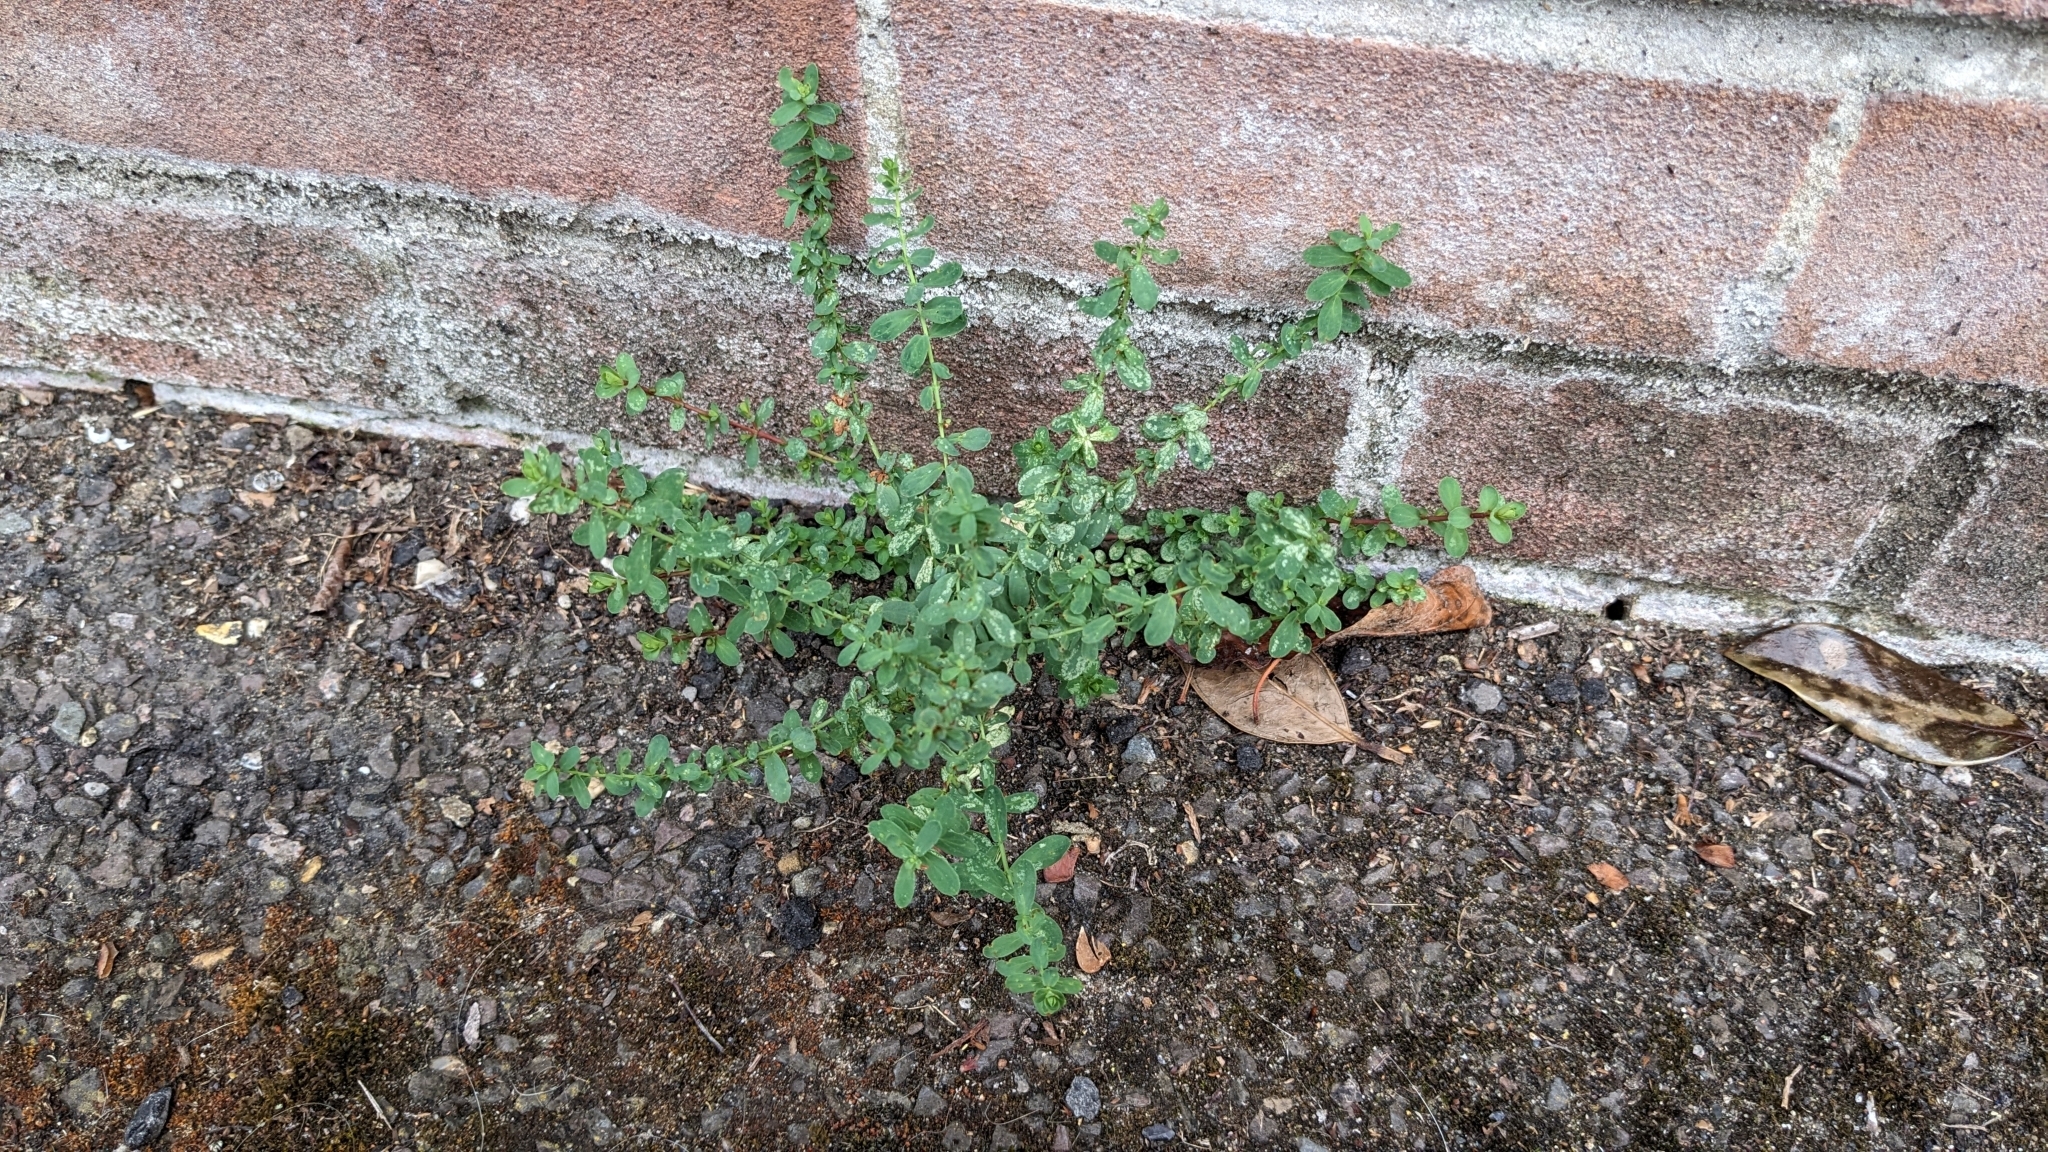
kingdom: Plantae
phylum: Tracheophyta
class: Magnoliopsida
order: Malpighiales
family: Hypericaceae
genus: Hypericum
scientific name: Hypericum perforatum
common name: Common st. johnswort
